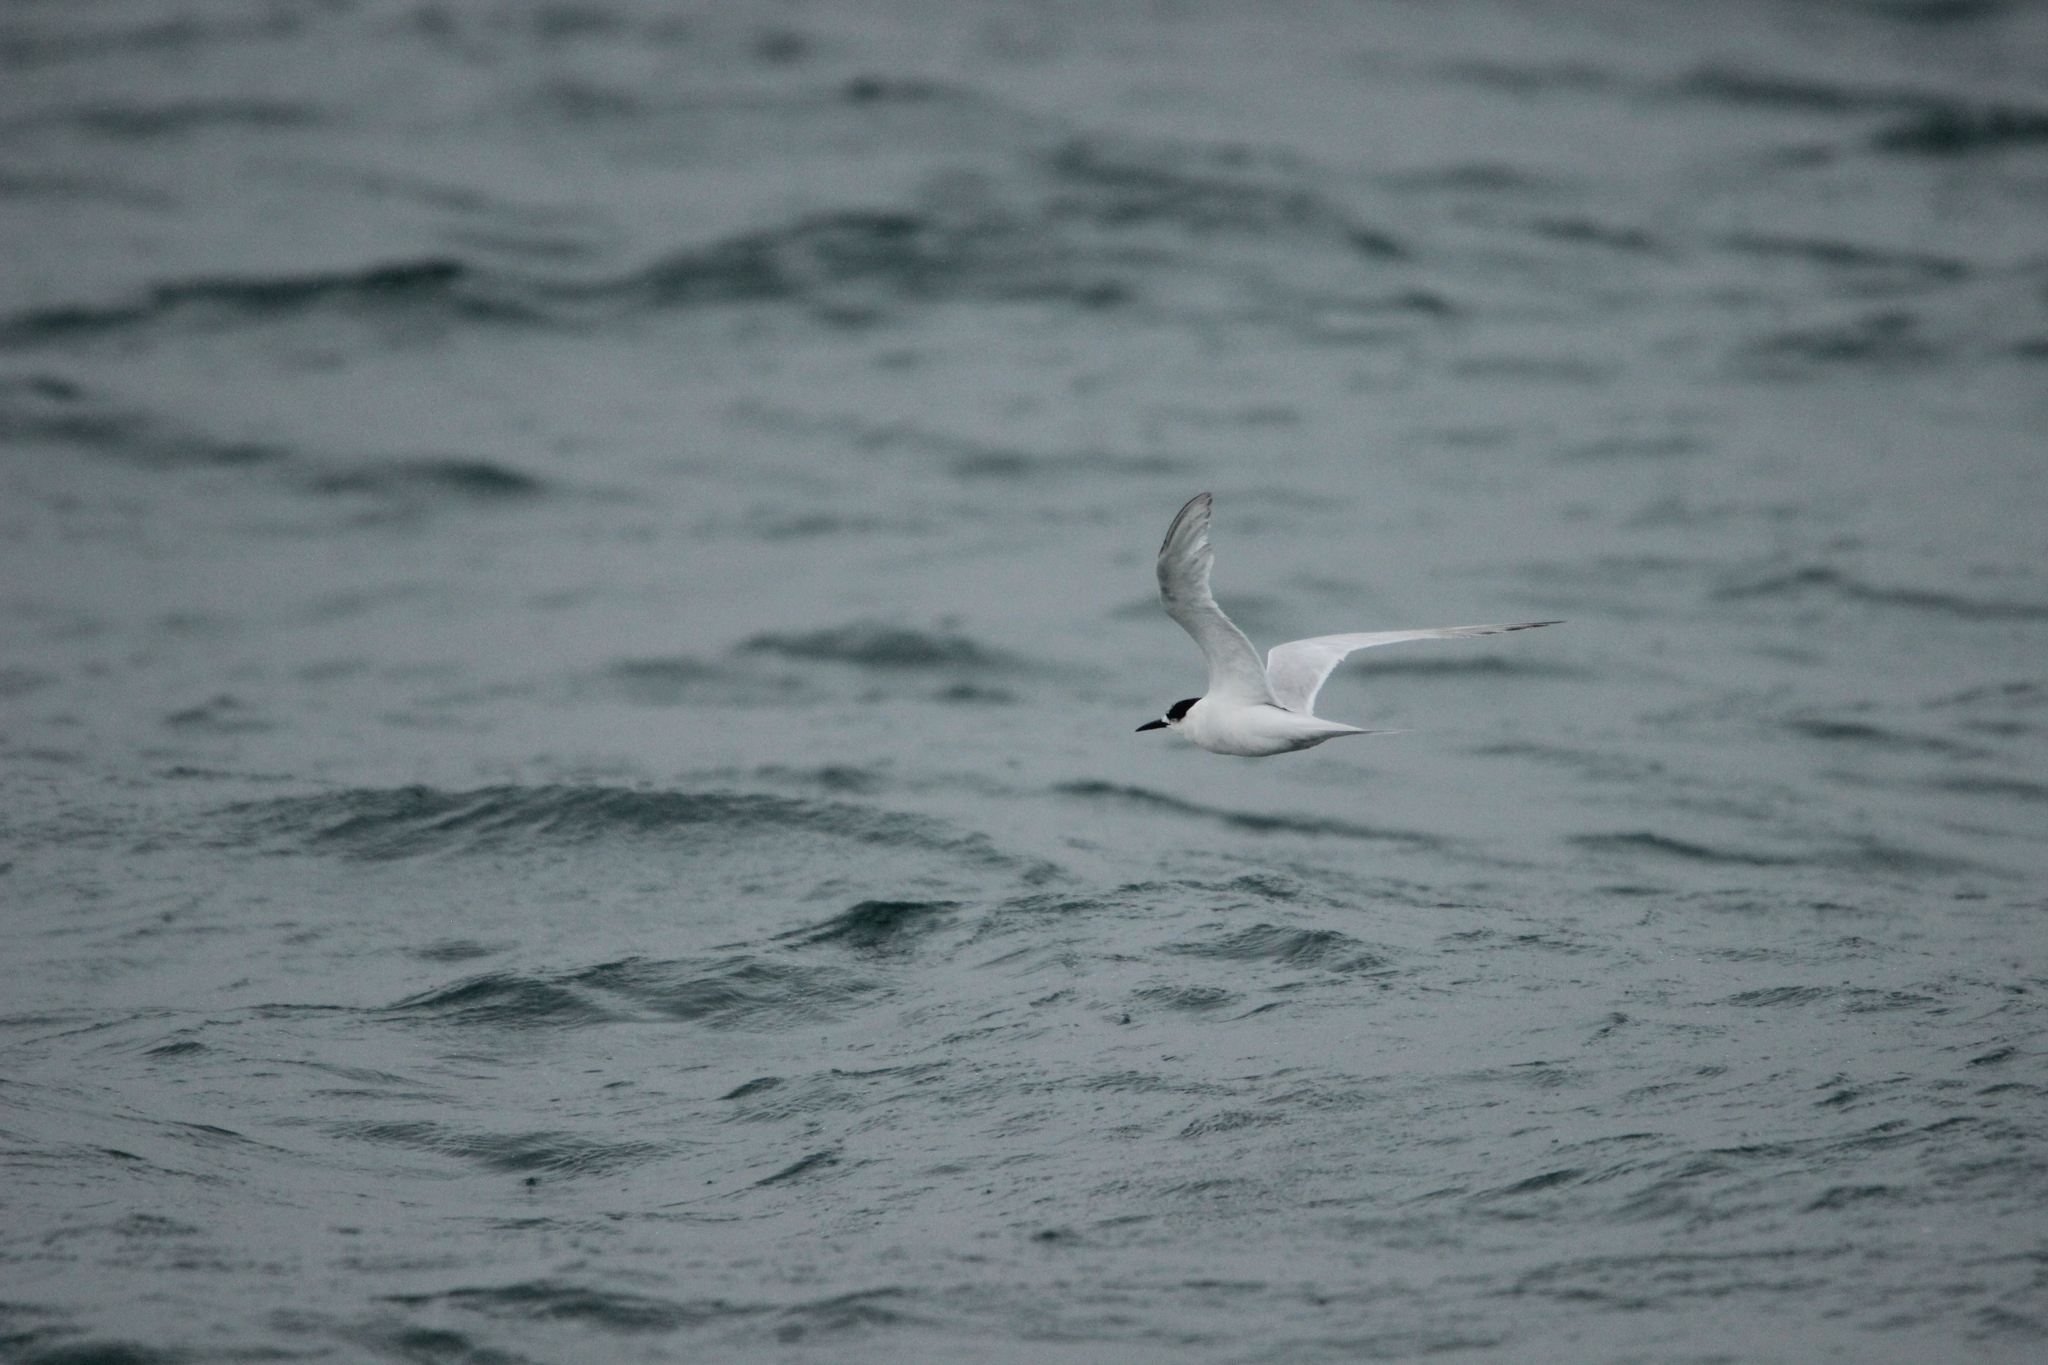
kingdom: Animalia
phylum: Chordata
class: Aves
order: Charadriiformes
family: Laridae
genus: Sterna
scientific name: Sterna striata
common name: White-fronted tern
